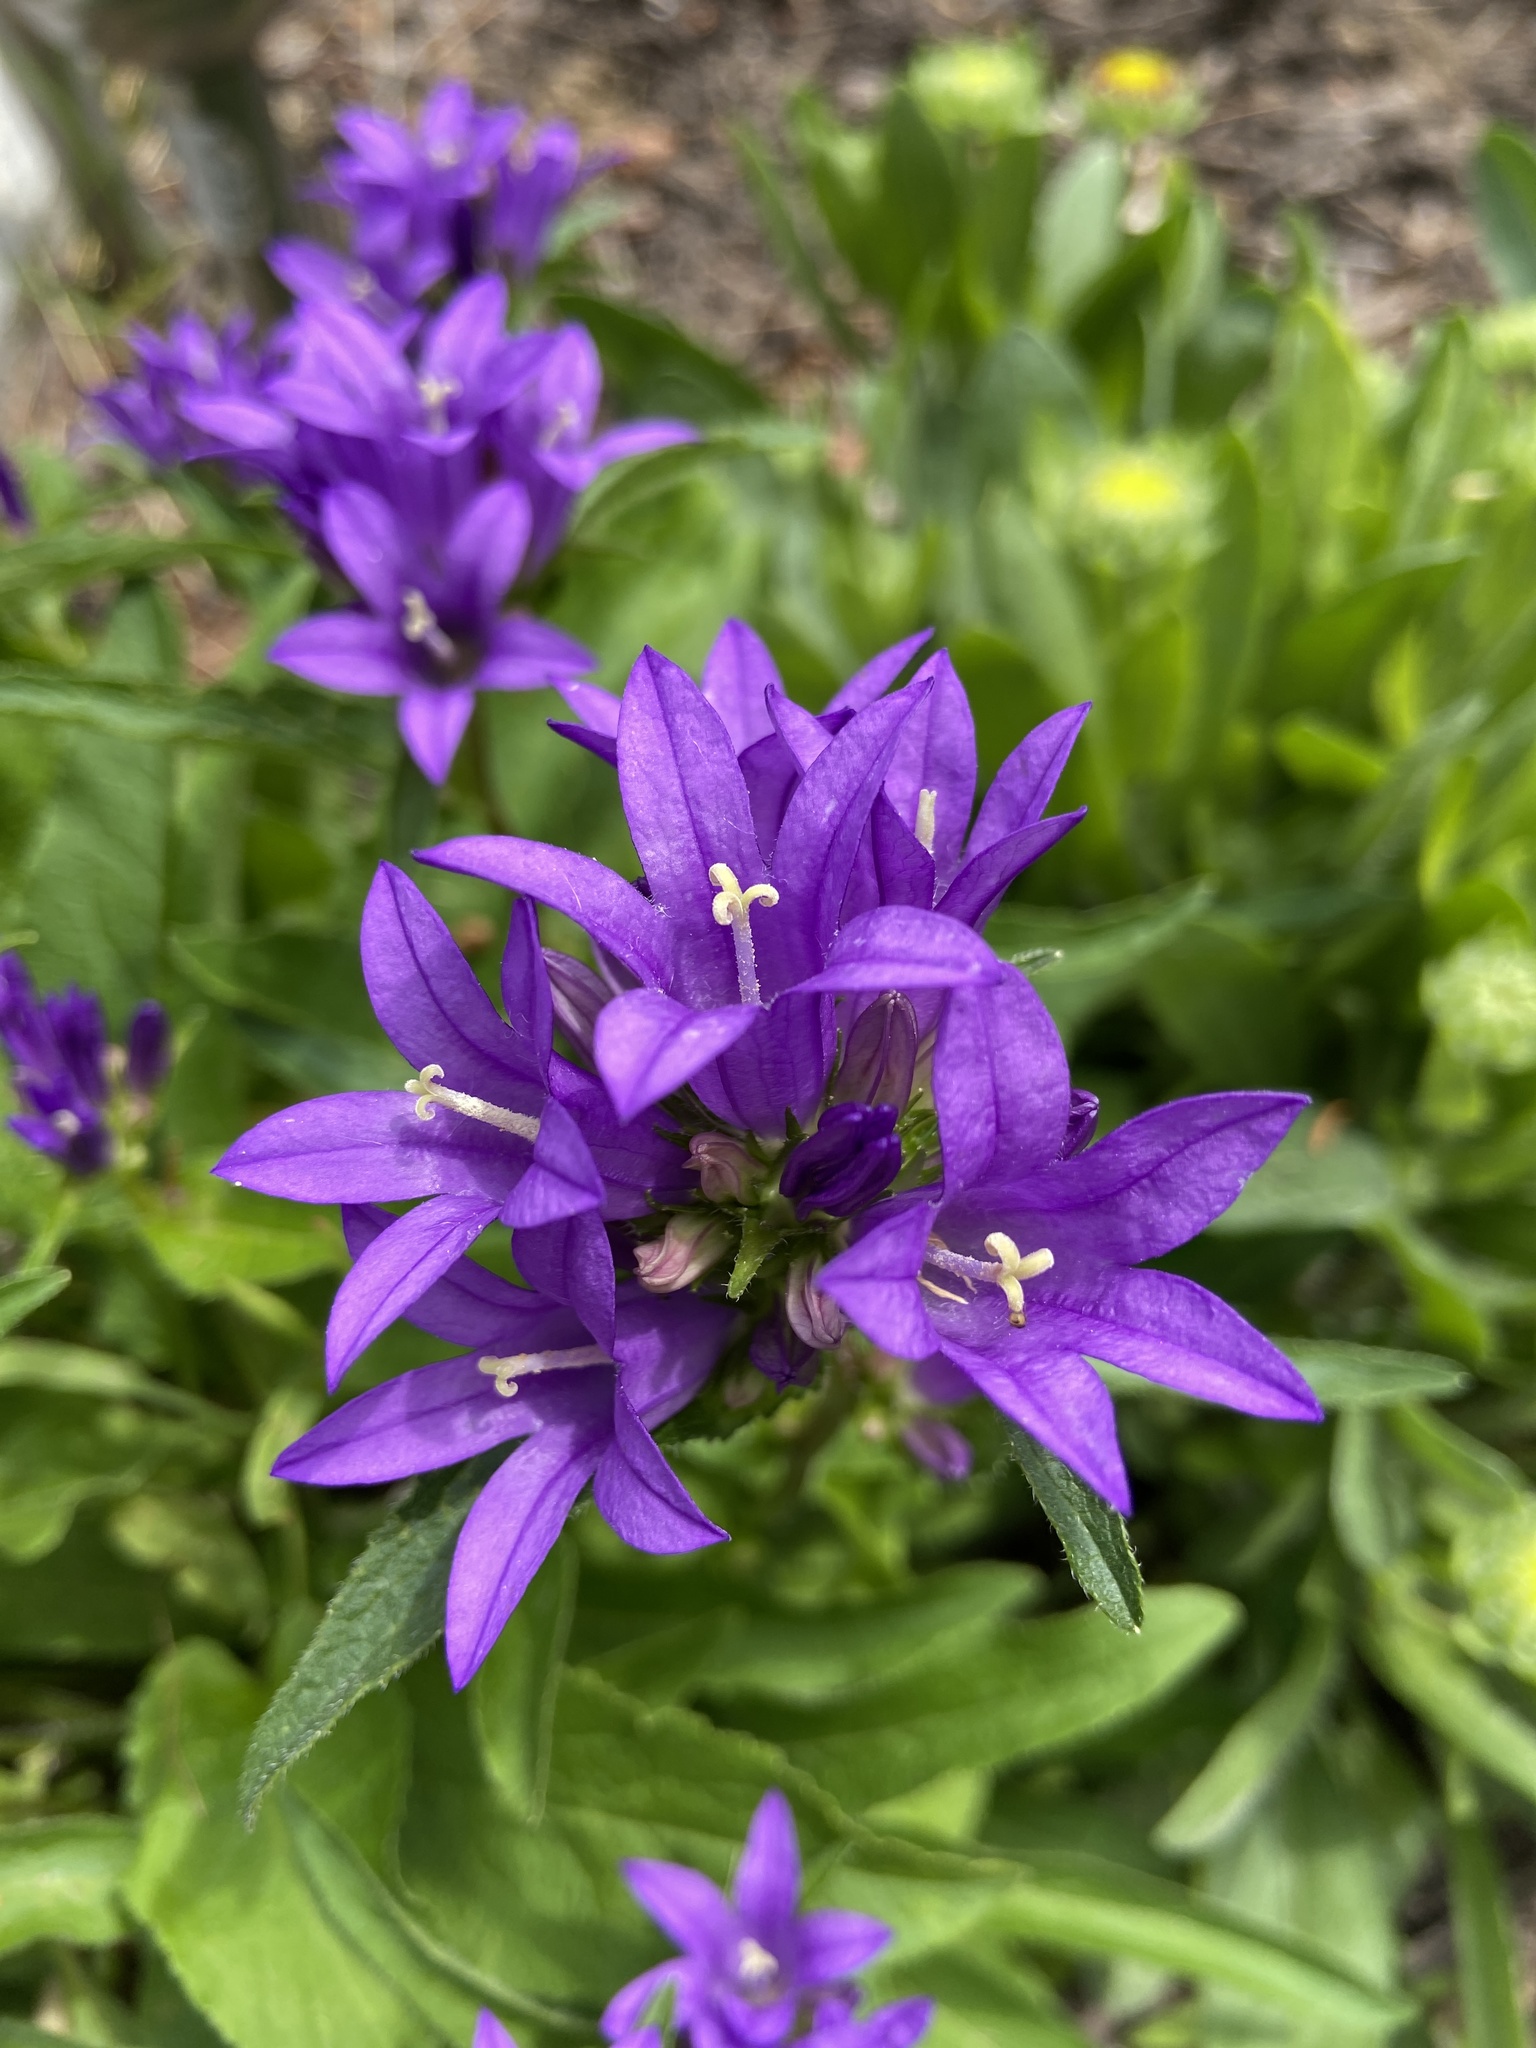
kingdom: Plantae
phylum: Tracheophyta
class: Magnoliopsida
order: Asterales
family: Campanulaceae
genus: Campanula
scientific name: Campanula glomerata
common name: Clustered bellflower
